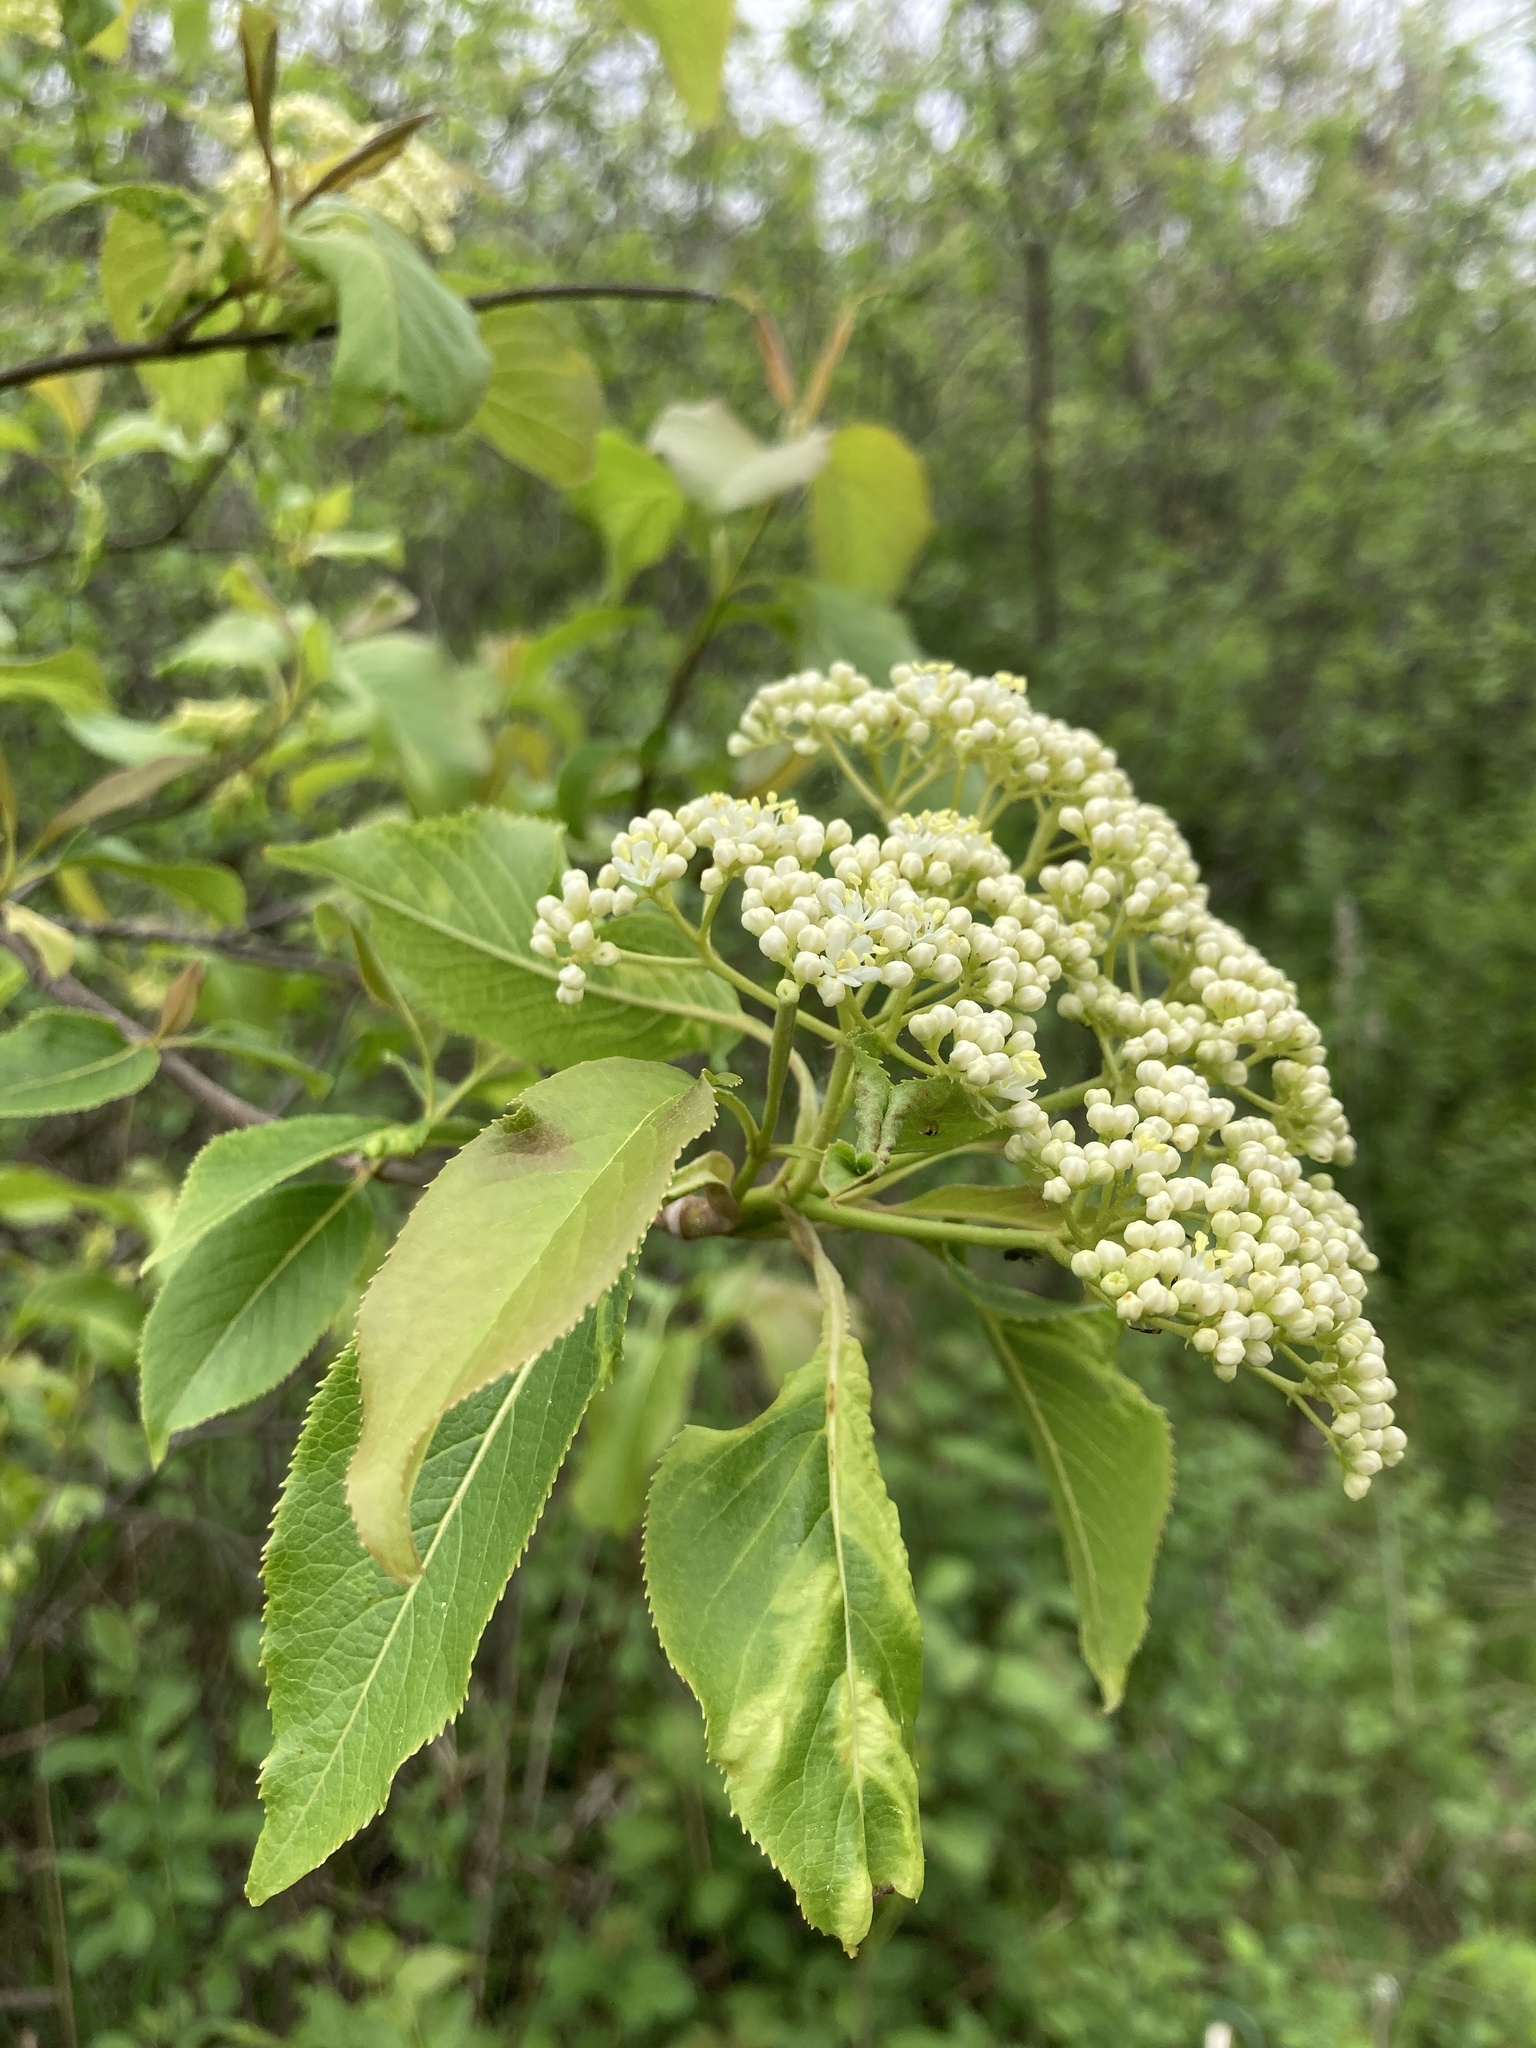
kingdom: Plantae
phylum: Tracheophyta
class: Magnoliopsida
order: Dipsacales
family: Viburnaceae
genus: Viburnum
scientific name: Viburnum lentago
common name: Black haw
